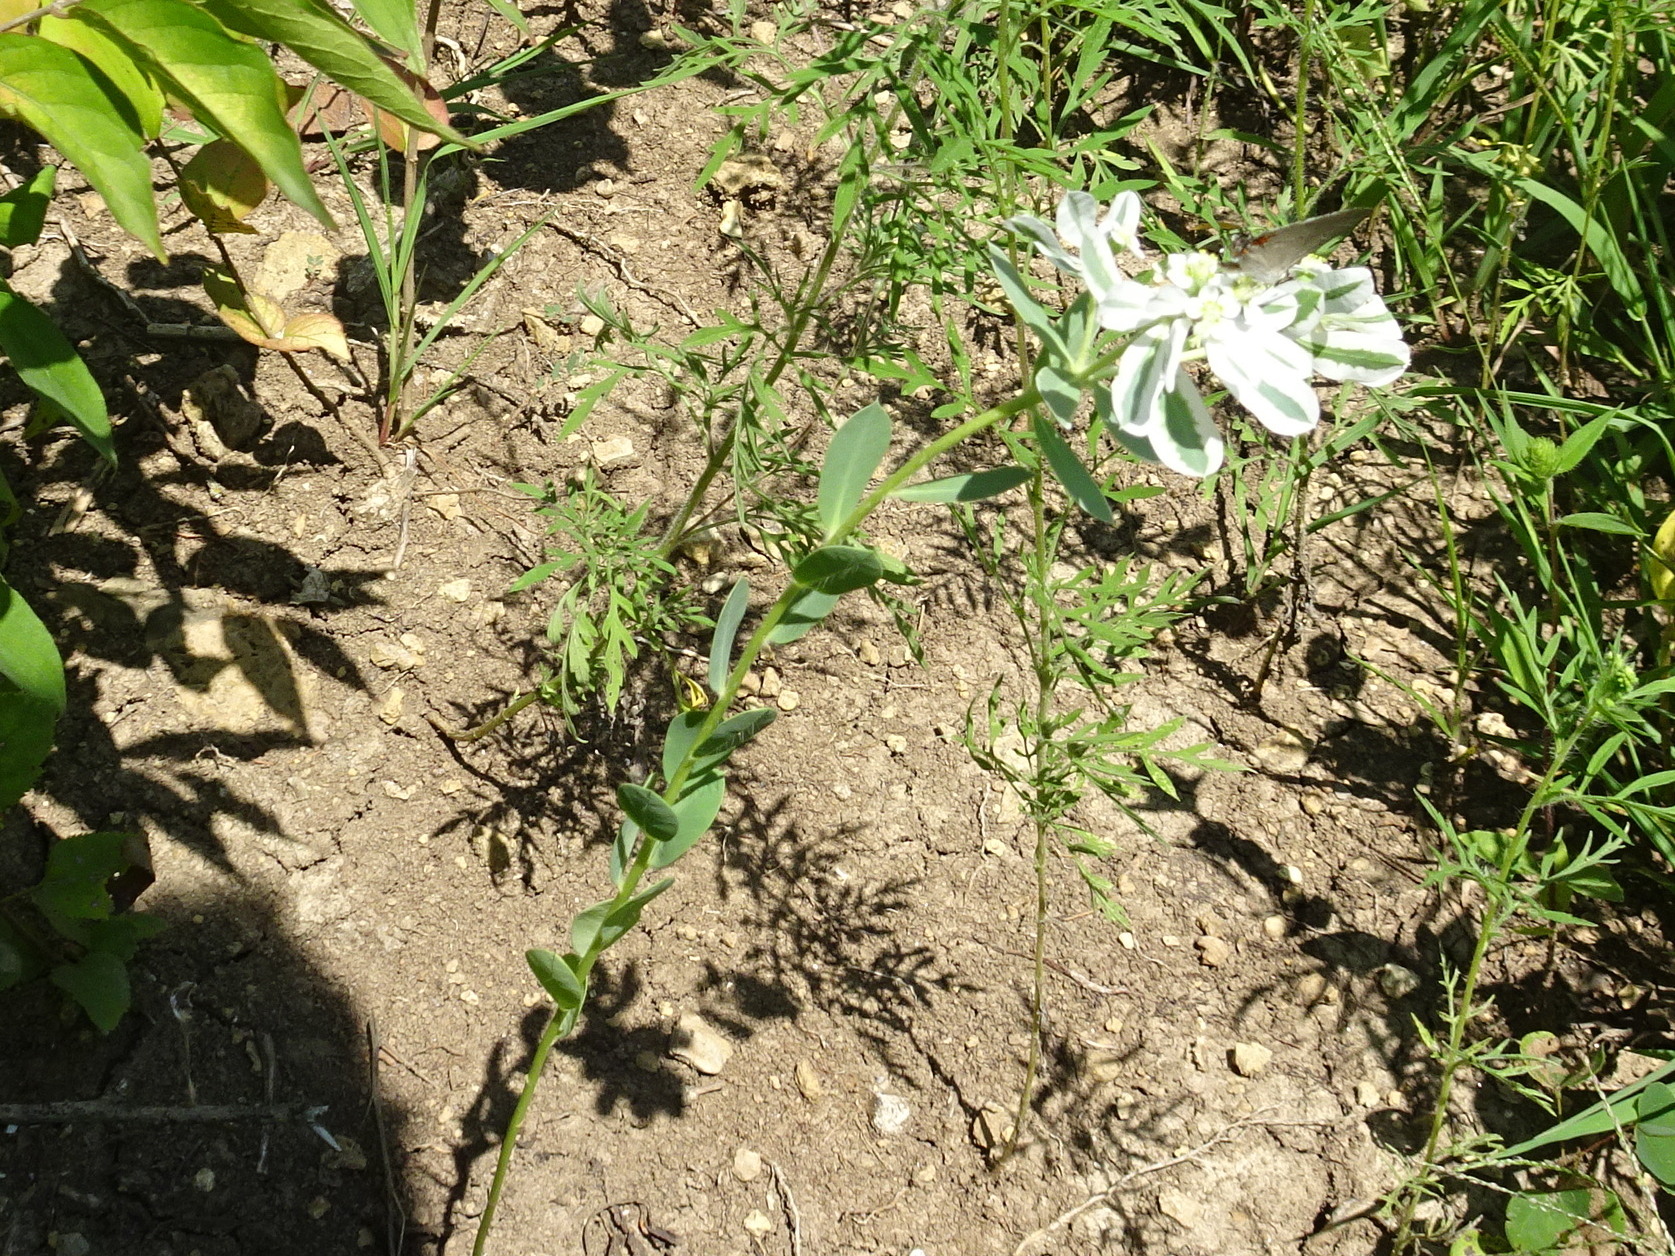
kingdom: Plantae
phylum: Tracheophyta
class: Magnoliopsida
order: Malpighiales
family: Euphorbiaceae
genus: Euphorbia
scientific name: Euphorbia marginata
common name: Ghostweed
